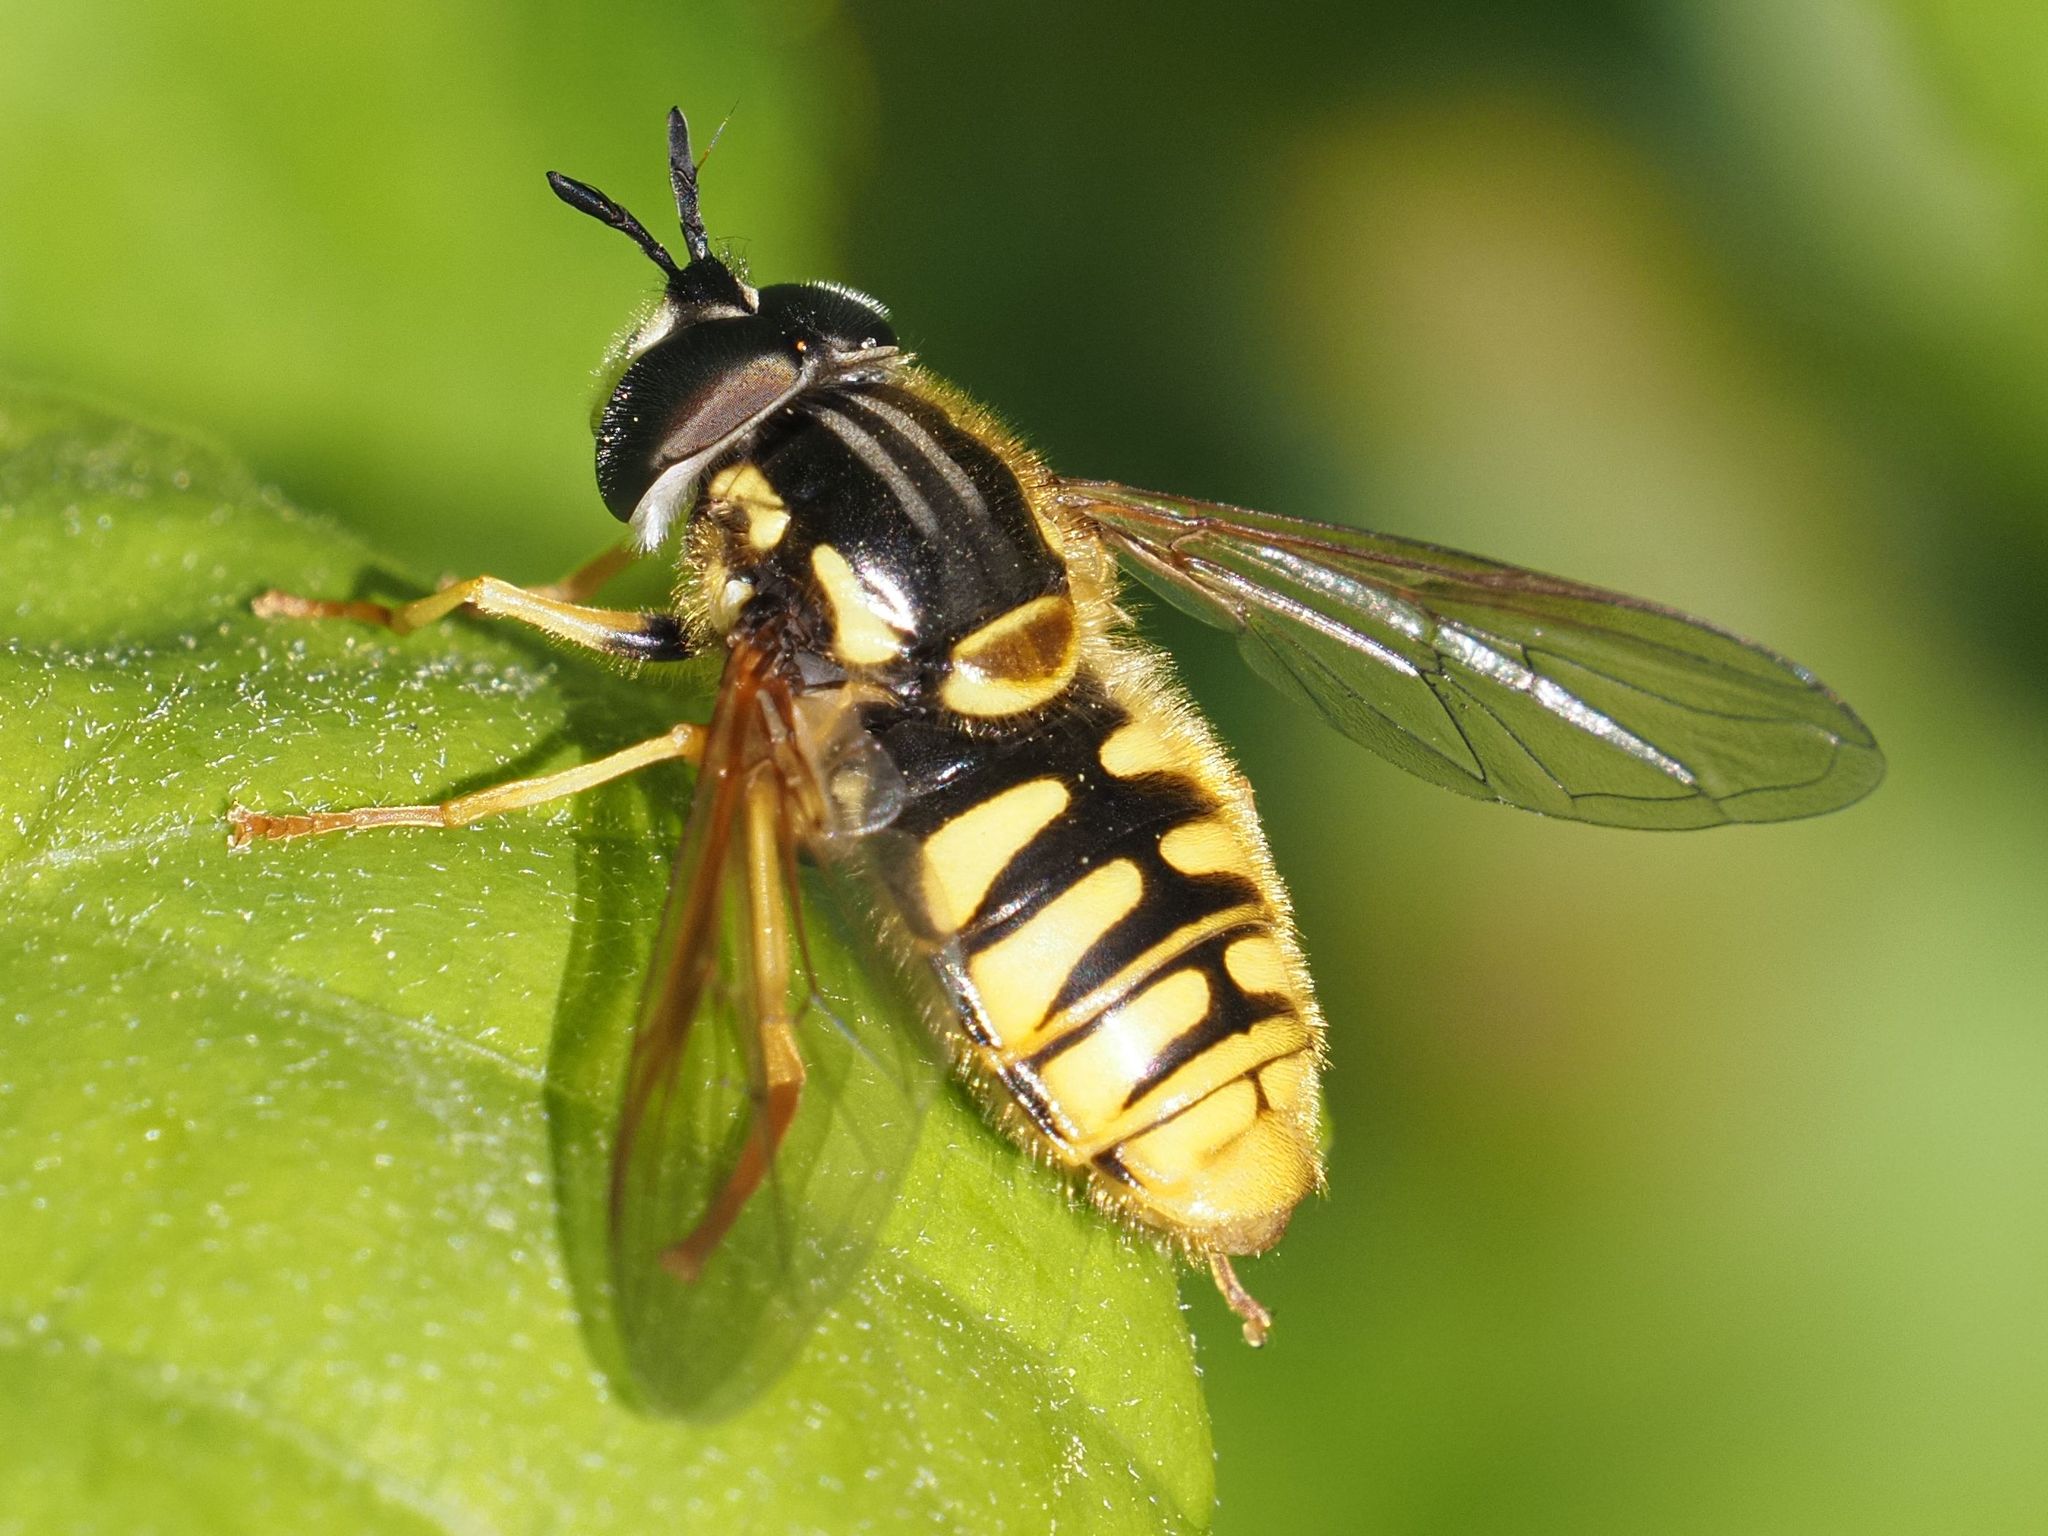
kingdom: Animalia
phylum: Arthropoda
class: Insecta
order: Diptera
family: Syrphidae
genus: Chrysotoxum
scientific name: Chrysotoxum cautum
